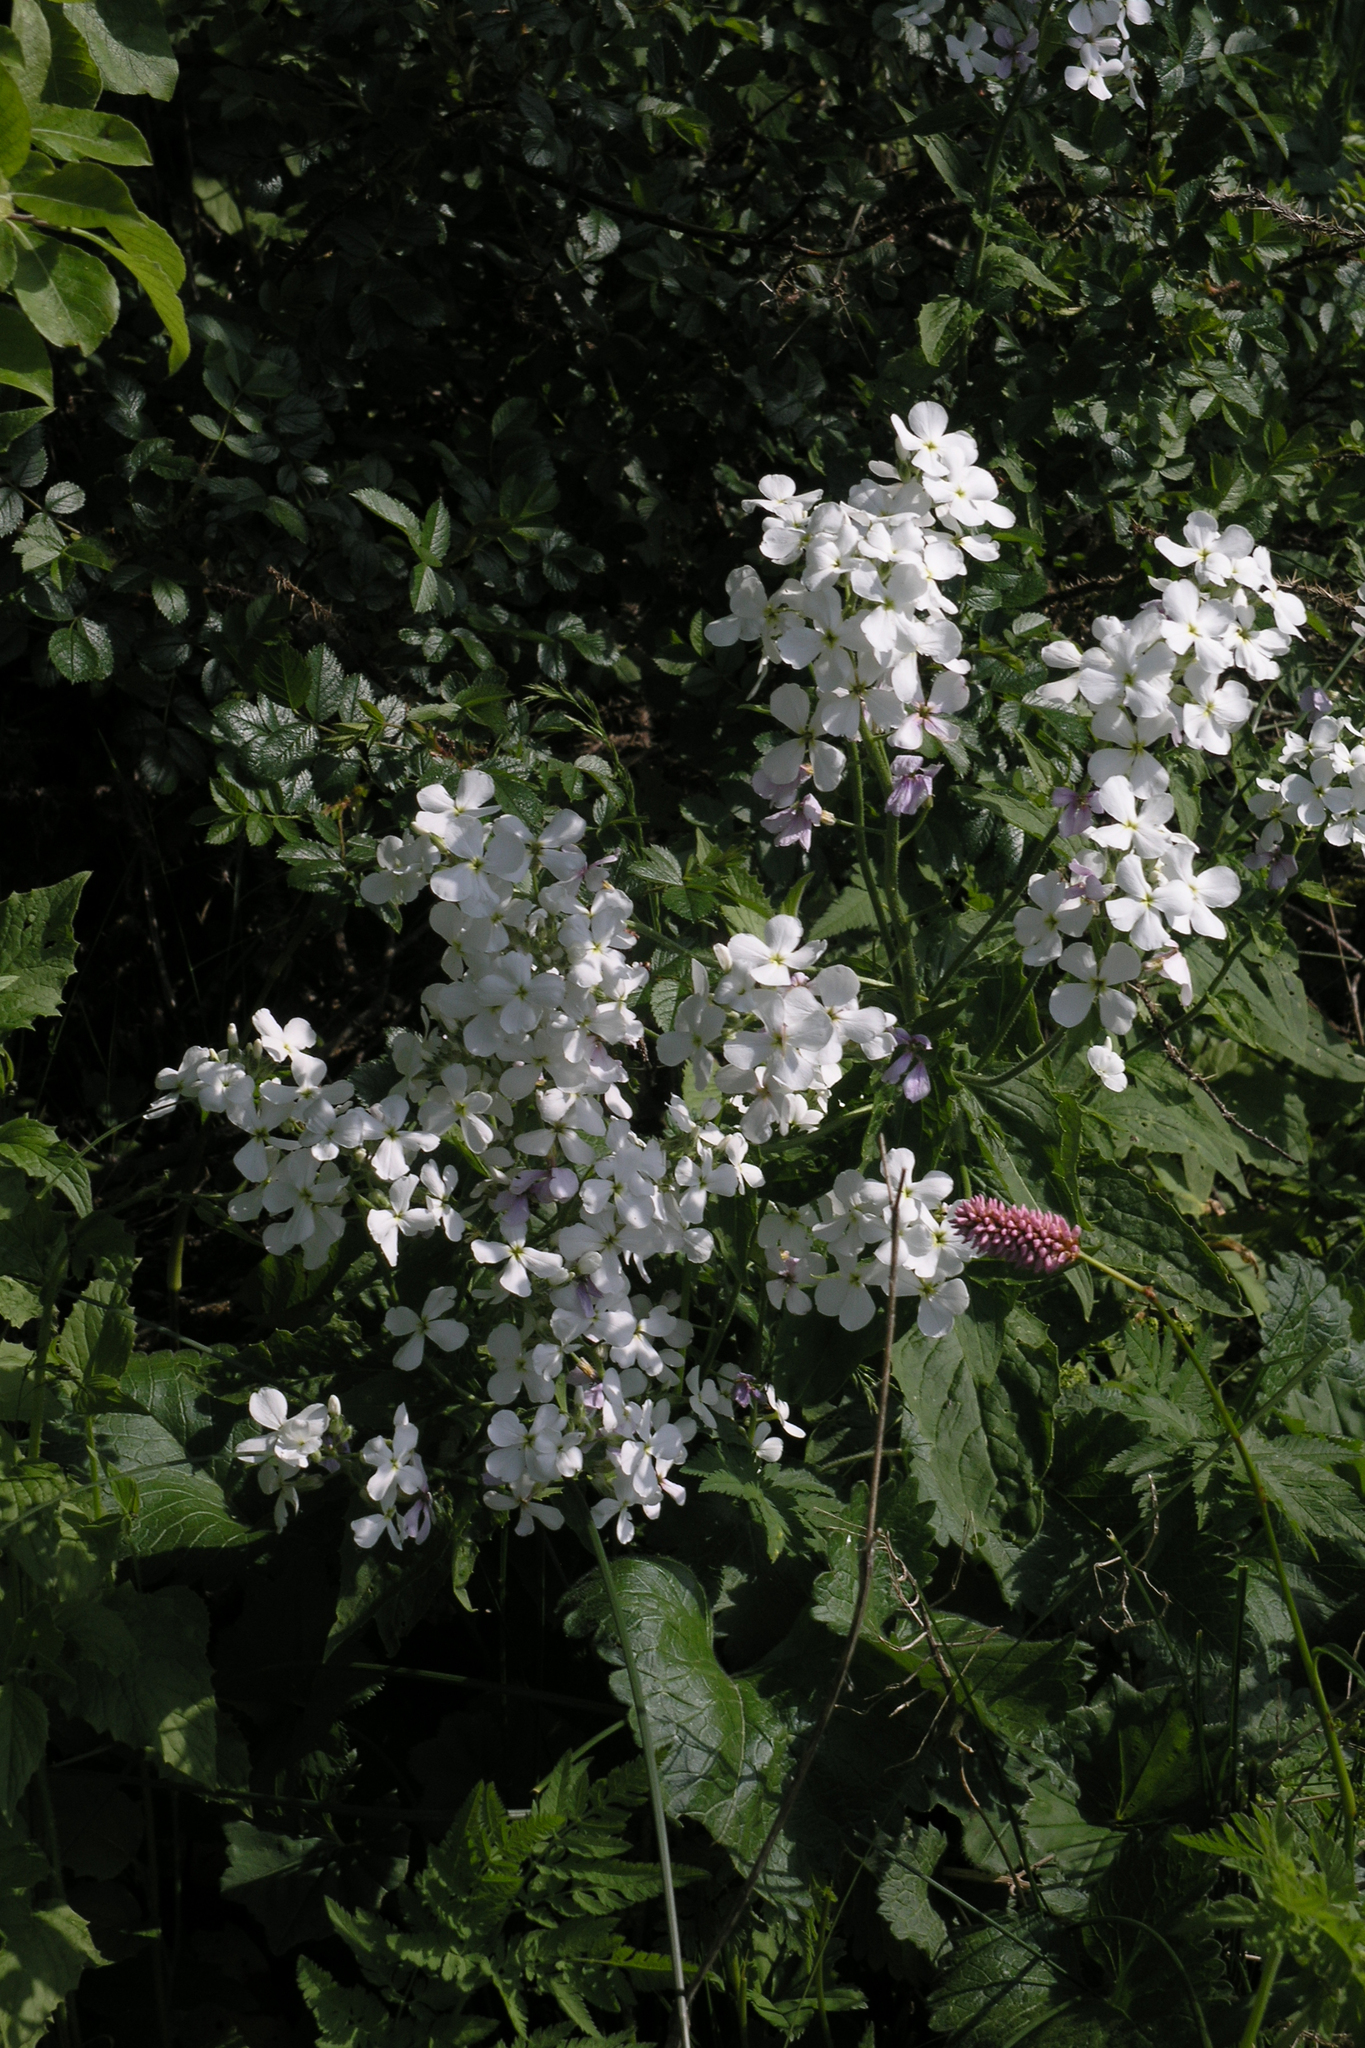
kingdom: Plantae
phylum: Tracheophyta
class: Magnoliopsida
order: Brassicales
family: Brassicaceae
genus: Hesperis
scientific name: Hesperis matronalis
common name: Dame's-violet
